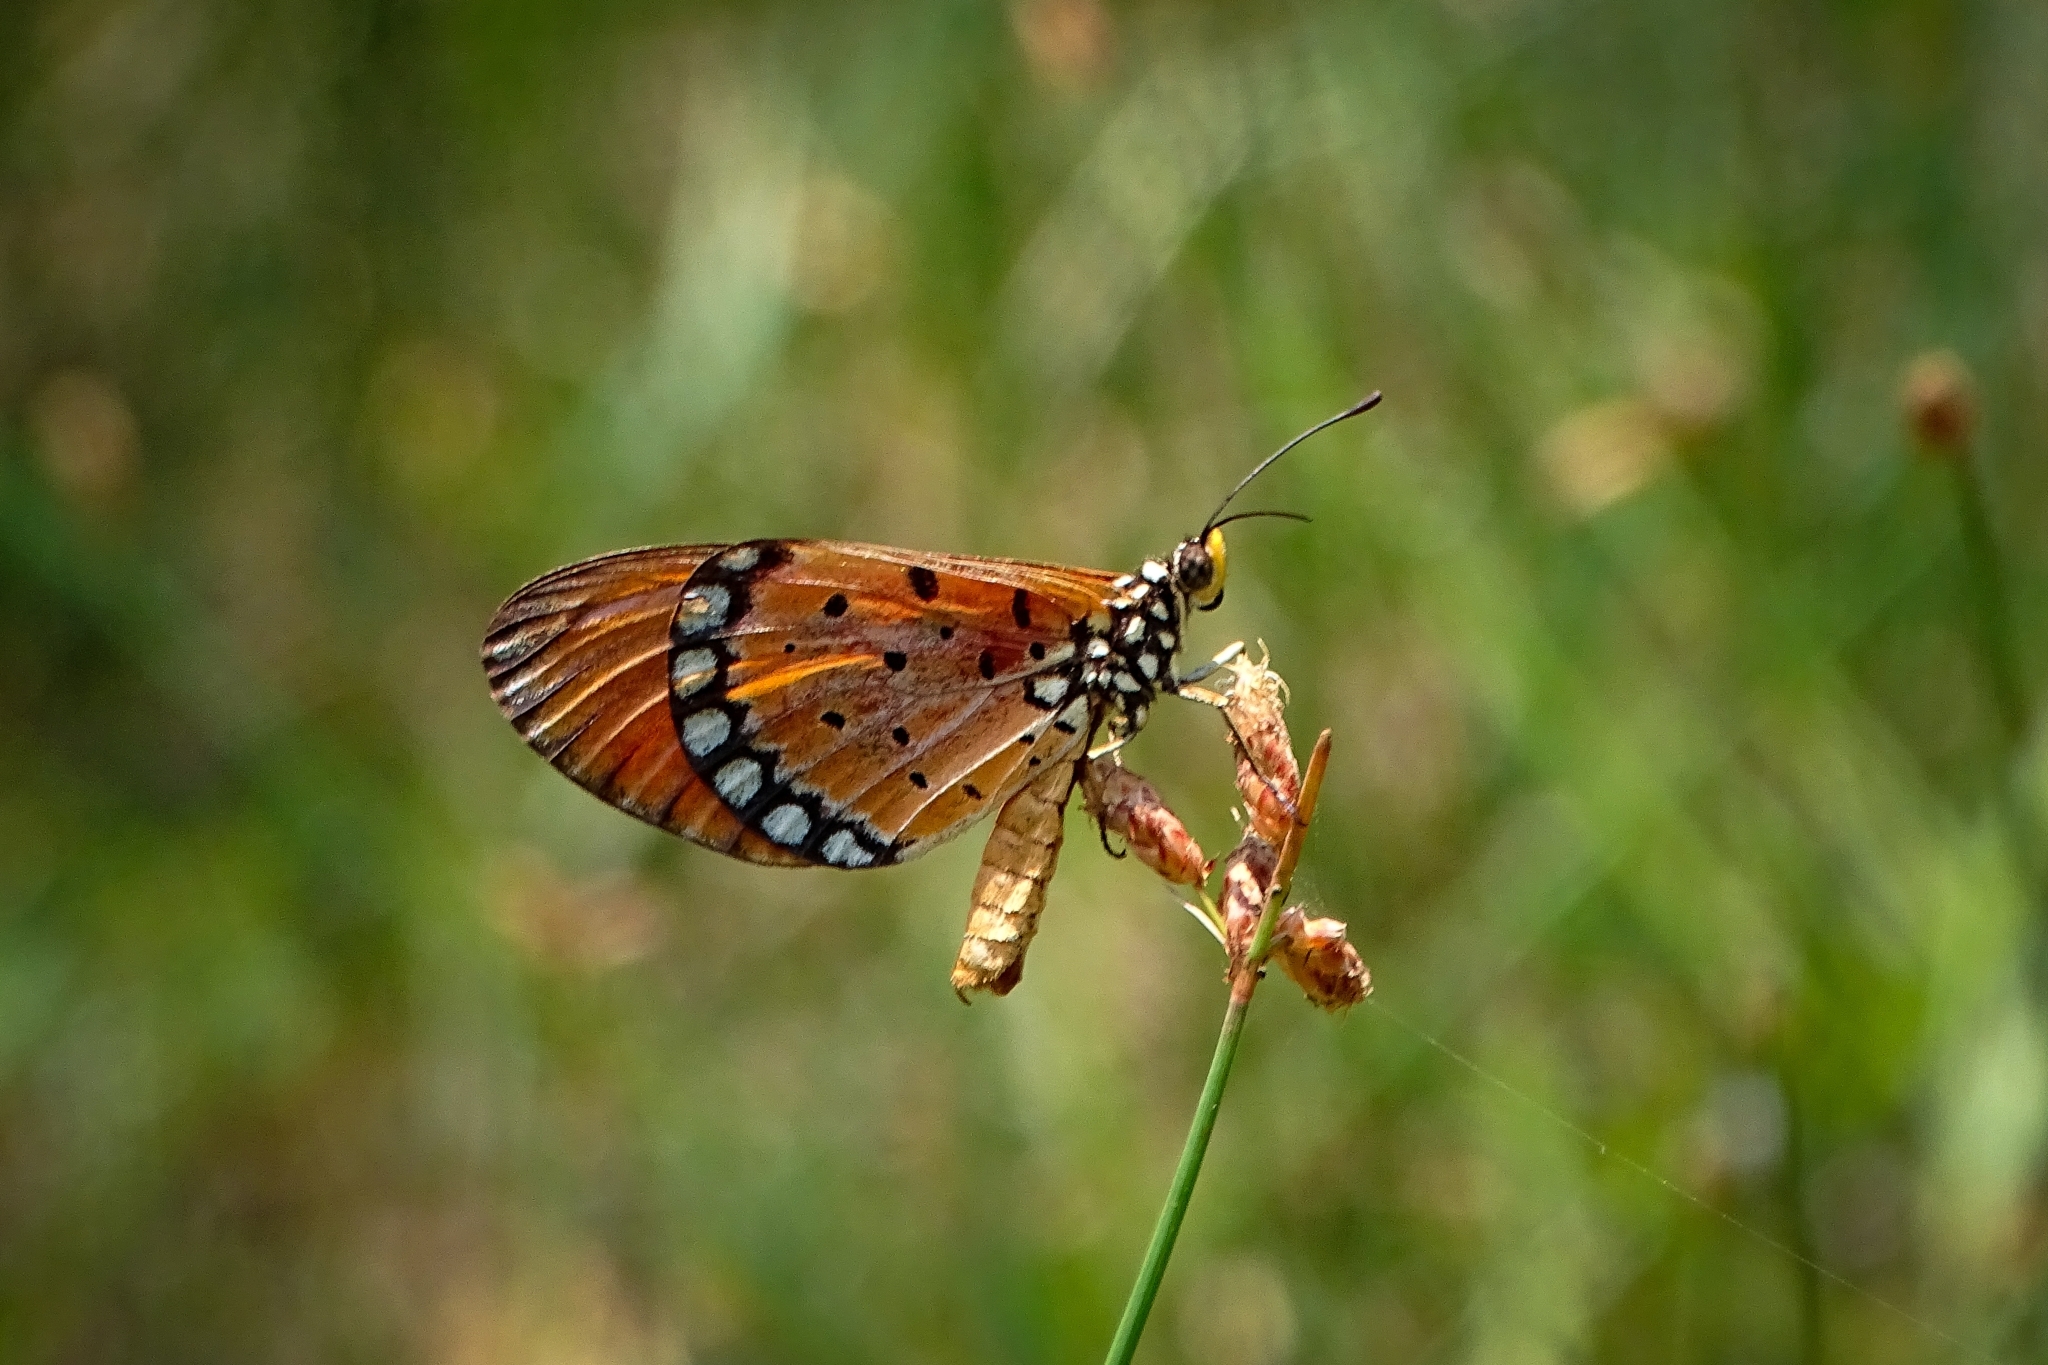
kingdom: Animalia
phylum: Arthropoda
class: Insecta
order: Lepidoptera
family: Nymphalidae
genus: Acraea
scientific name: Acraea terpsicore
